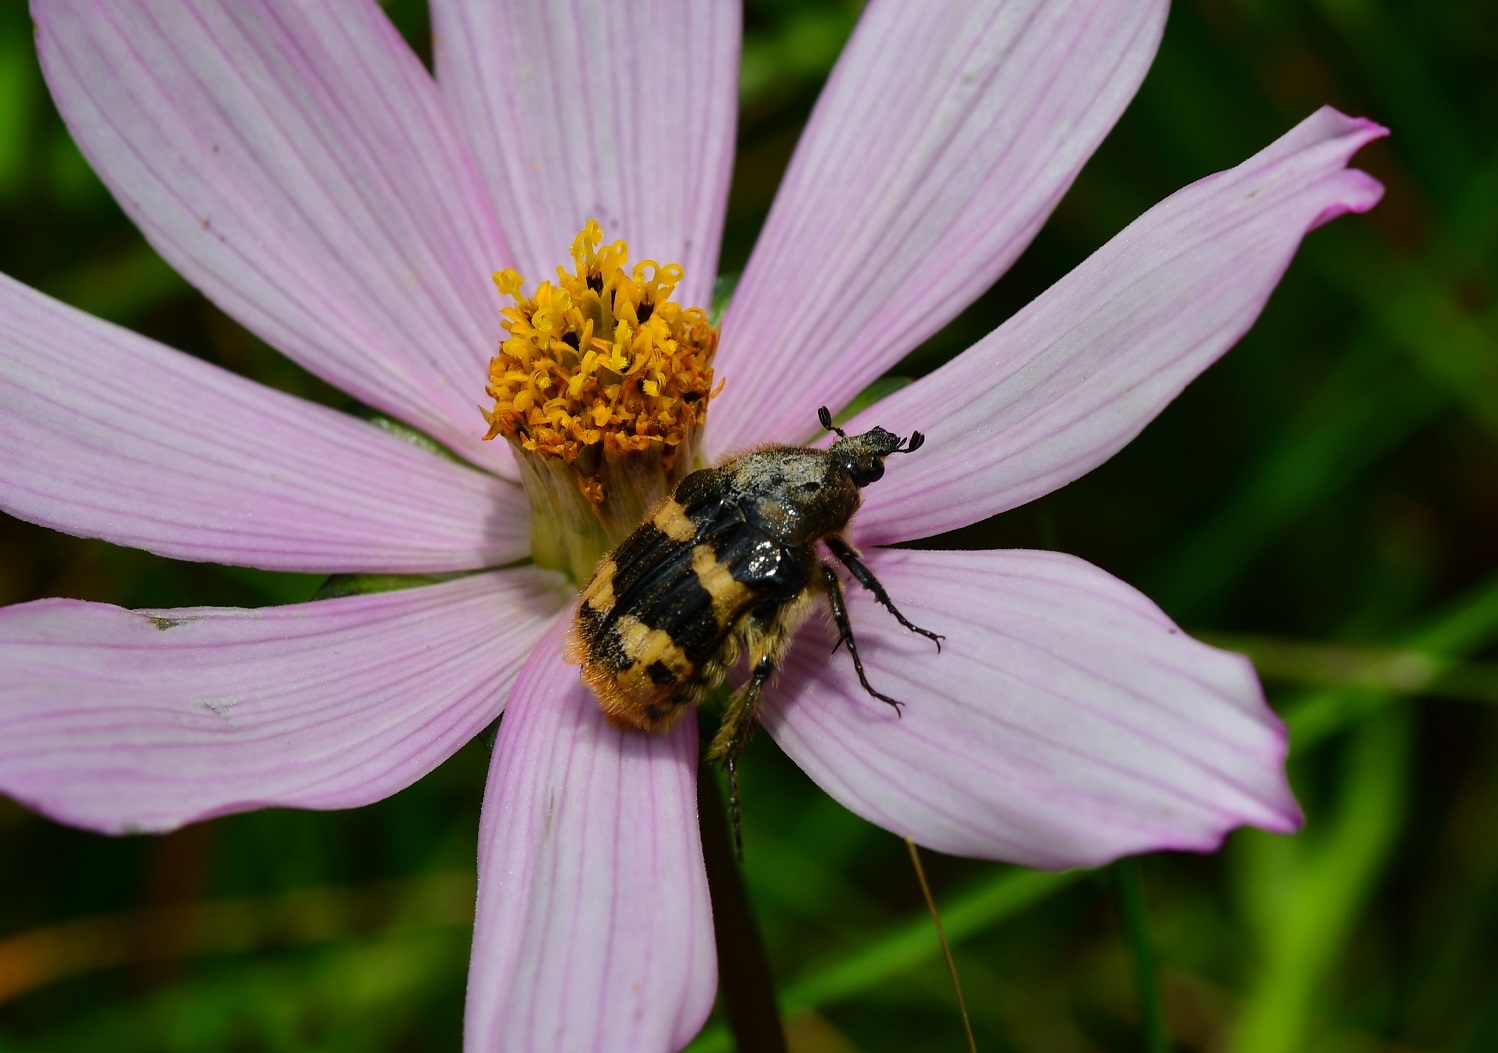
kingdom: Animalia
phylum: Arthropoda
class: Insecta
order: Coleoptera
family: Scarabaeidae
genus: Euphoria
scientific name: Euphoria basalis
